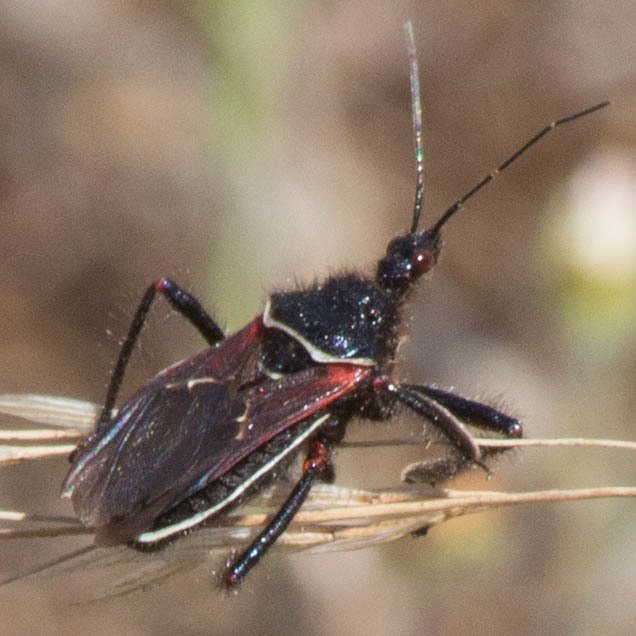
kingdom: Animalia
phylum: Arthropoda
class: Insecta
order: Hemiptera
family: Reduviidae
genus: Apiomerus
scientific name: Apiomerus californicus
